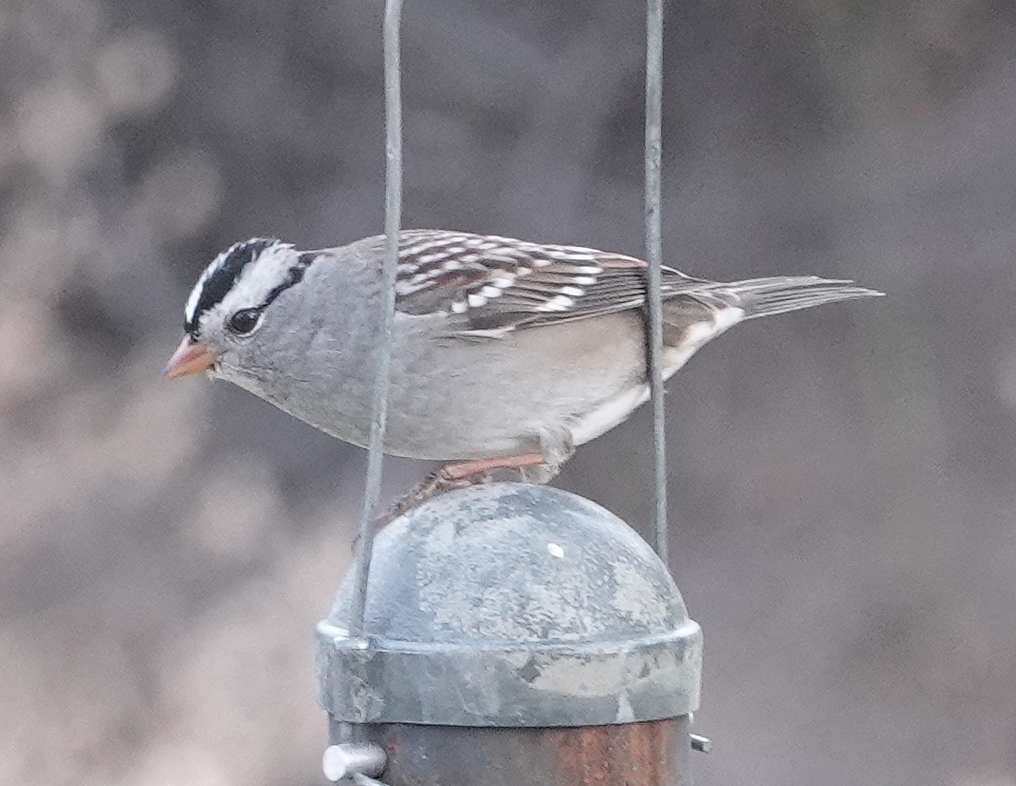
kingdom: Animalia
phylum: Chordata
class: Aves
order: Passeriformes
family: Passerellidae
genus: Zonotrichia
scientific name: Zonotrichia leucophrys
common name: White-crowned sparrow
